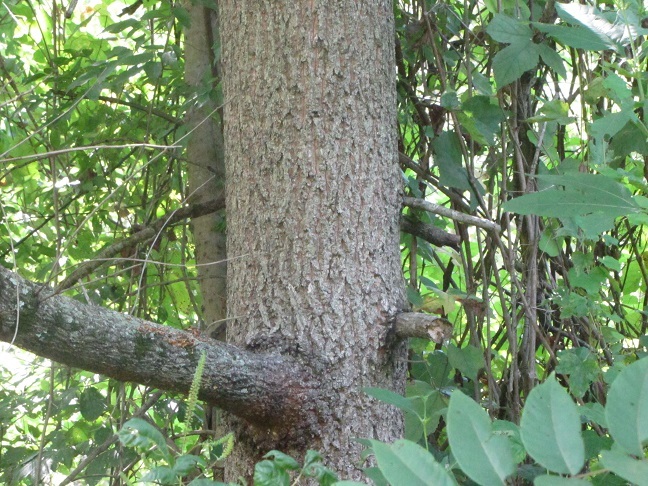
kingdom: Plantae
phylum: Tracheophyta
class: Magnoliopsida
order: Fagales
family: Fagaceae
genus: Quercus
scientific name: Quercus acutissima
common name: Sawtooth oak
